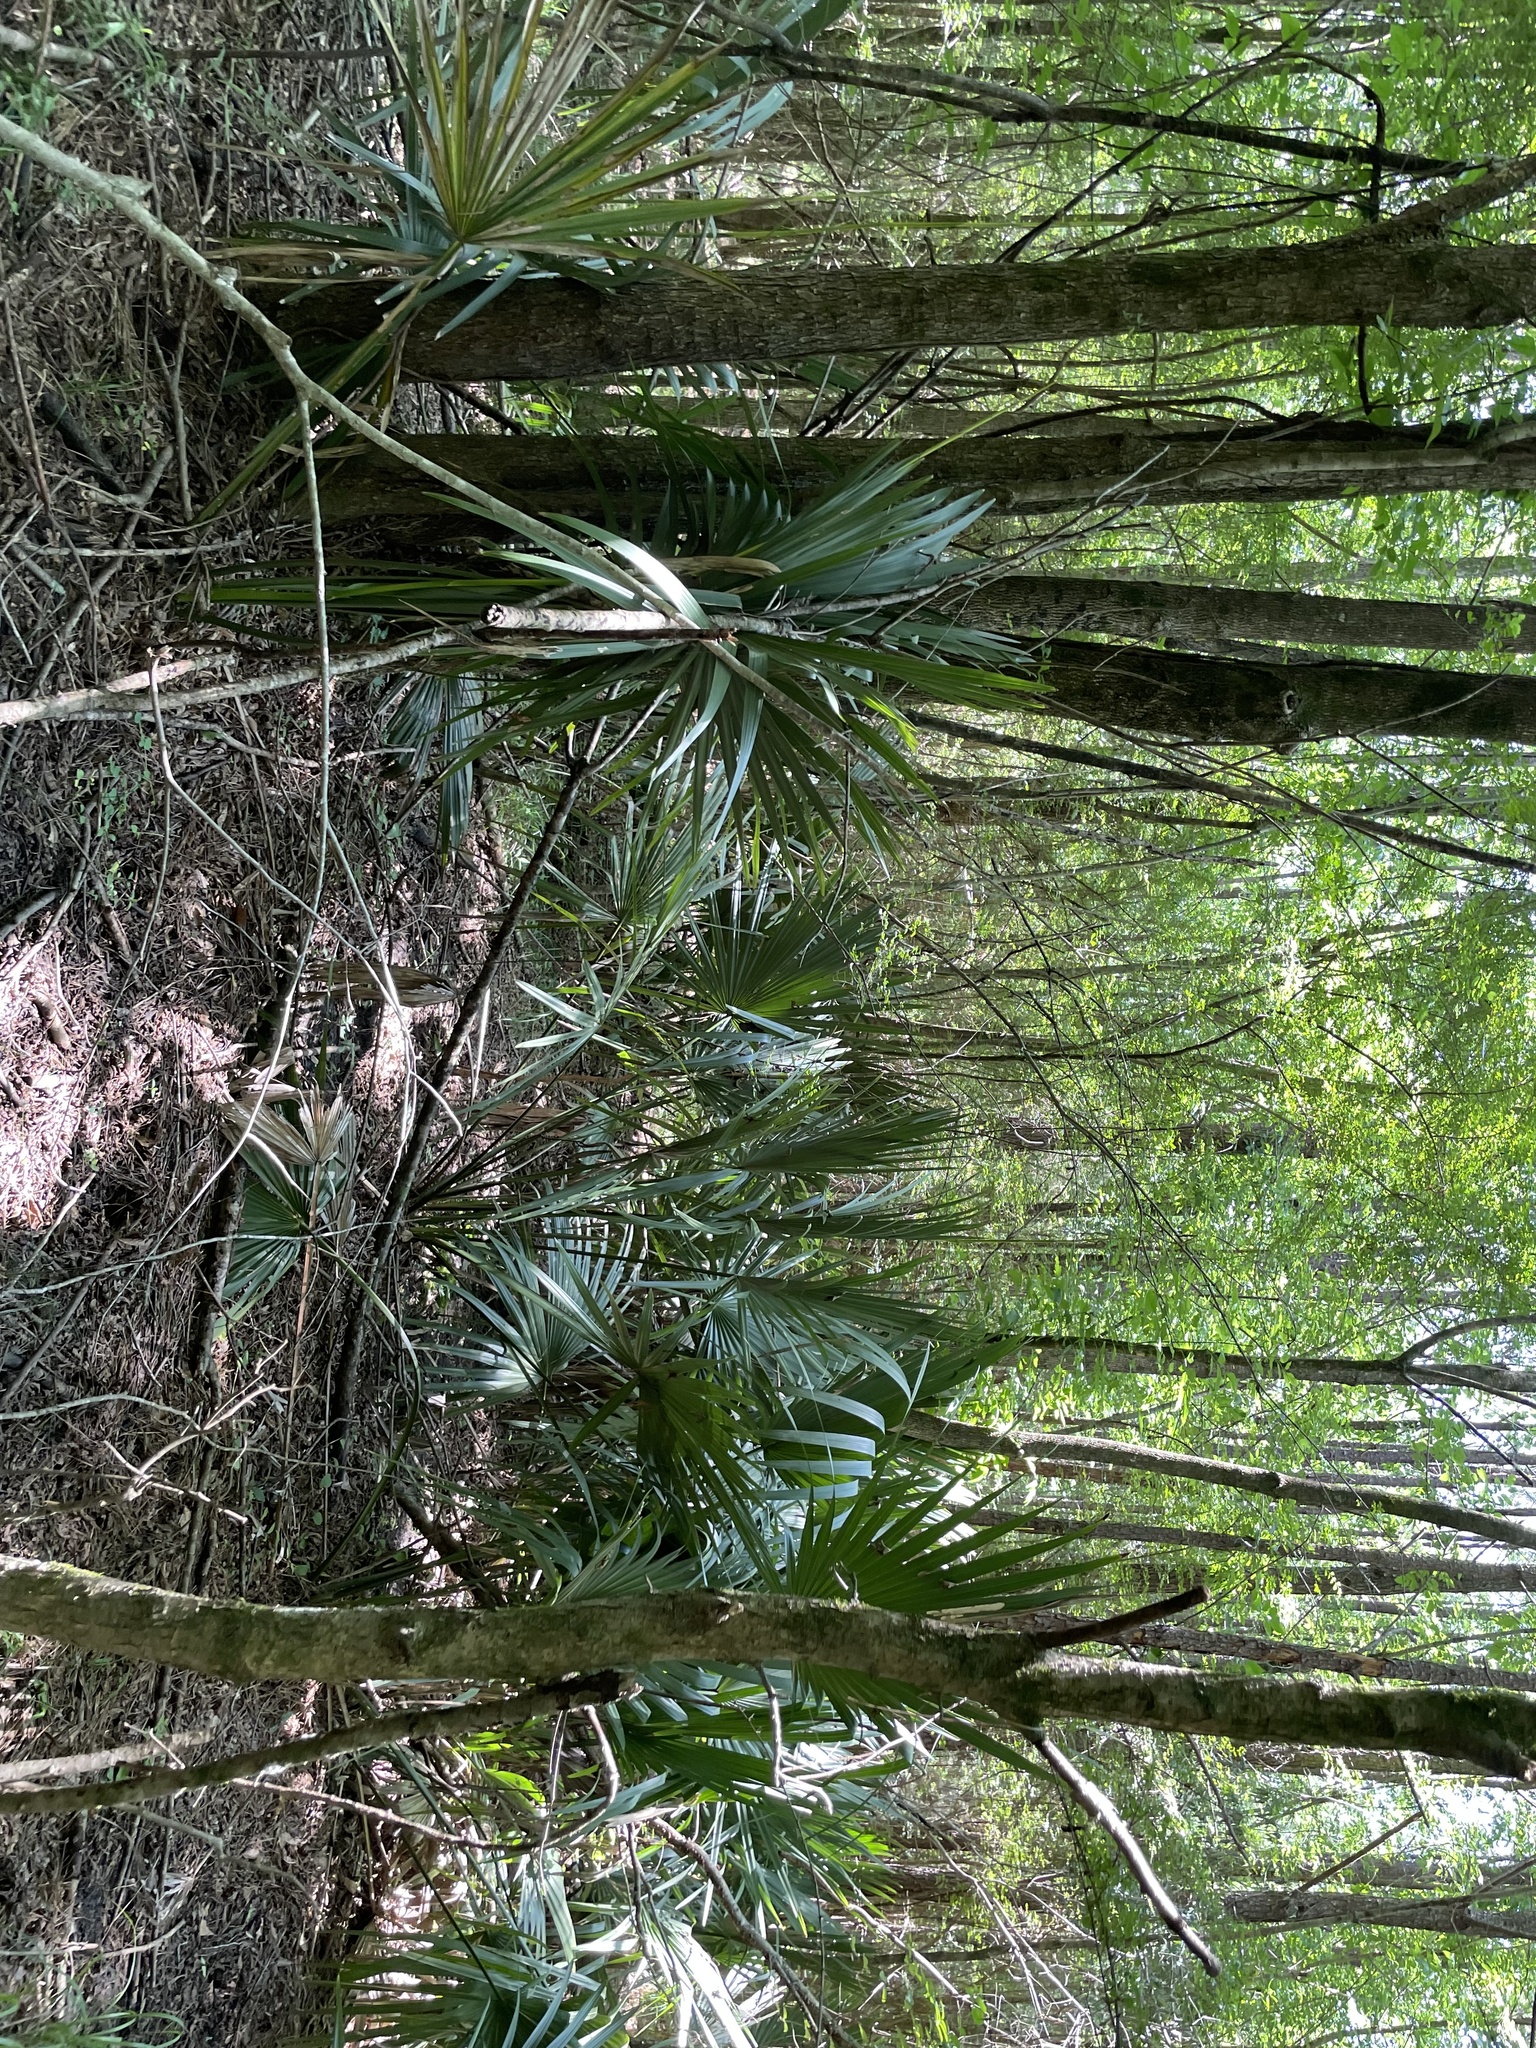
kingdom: Plantae
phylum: Tracheophyta
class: Liliopsida
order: Arecales
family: Arecaceae
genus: Sabal
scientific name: Sabal minor
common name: Dwarf palmetto
